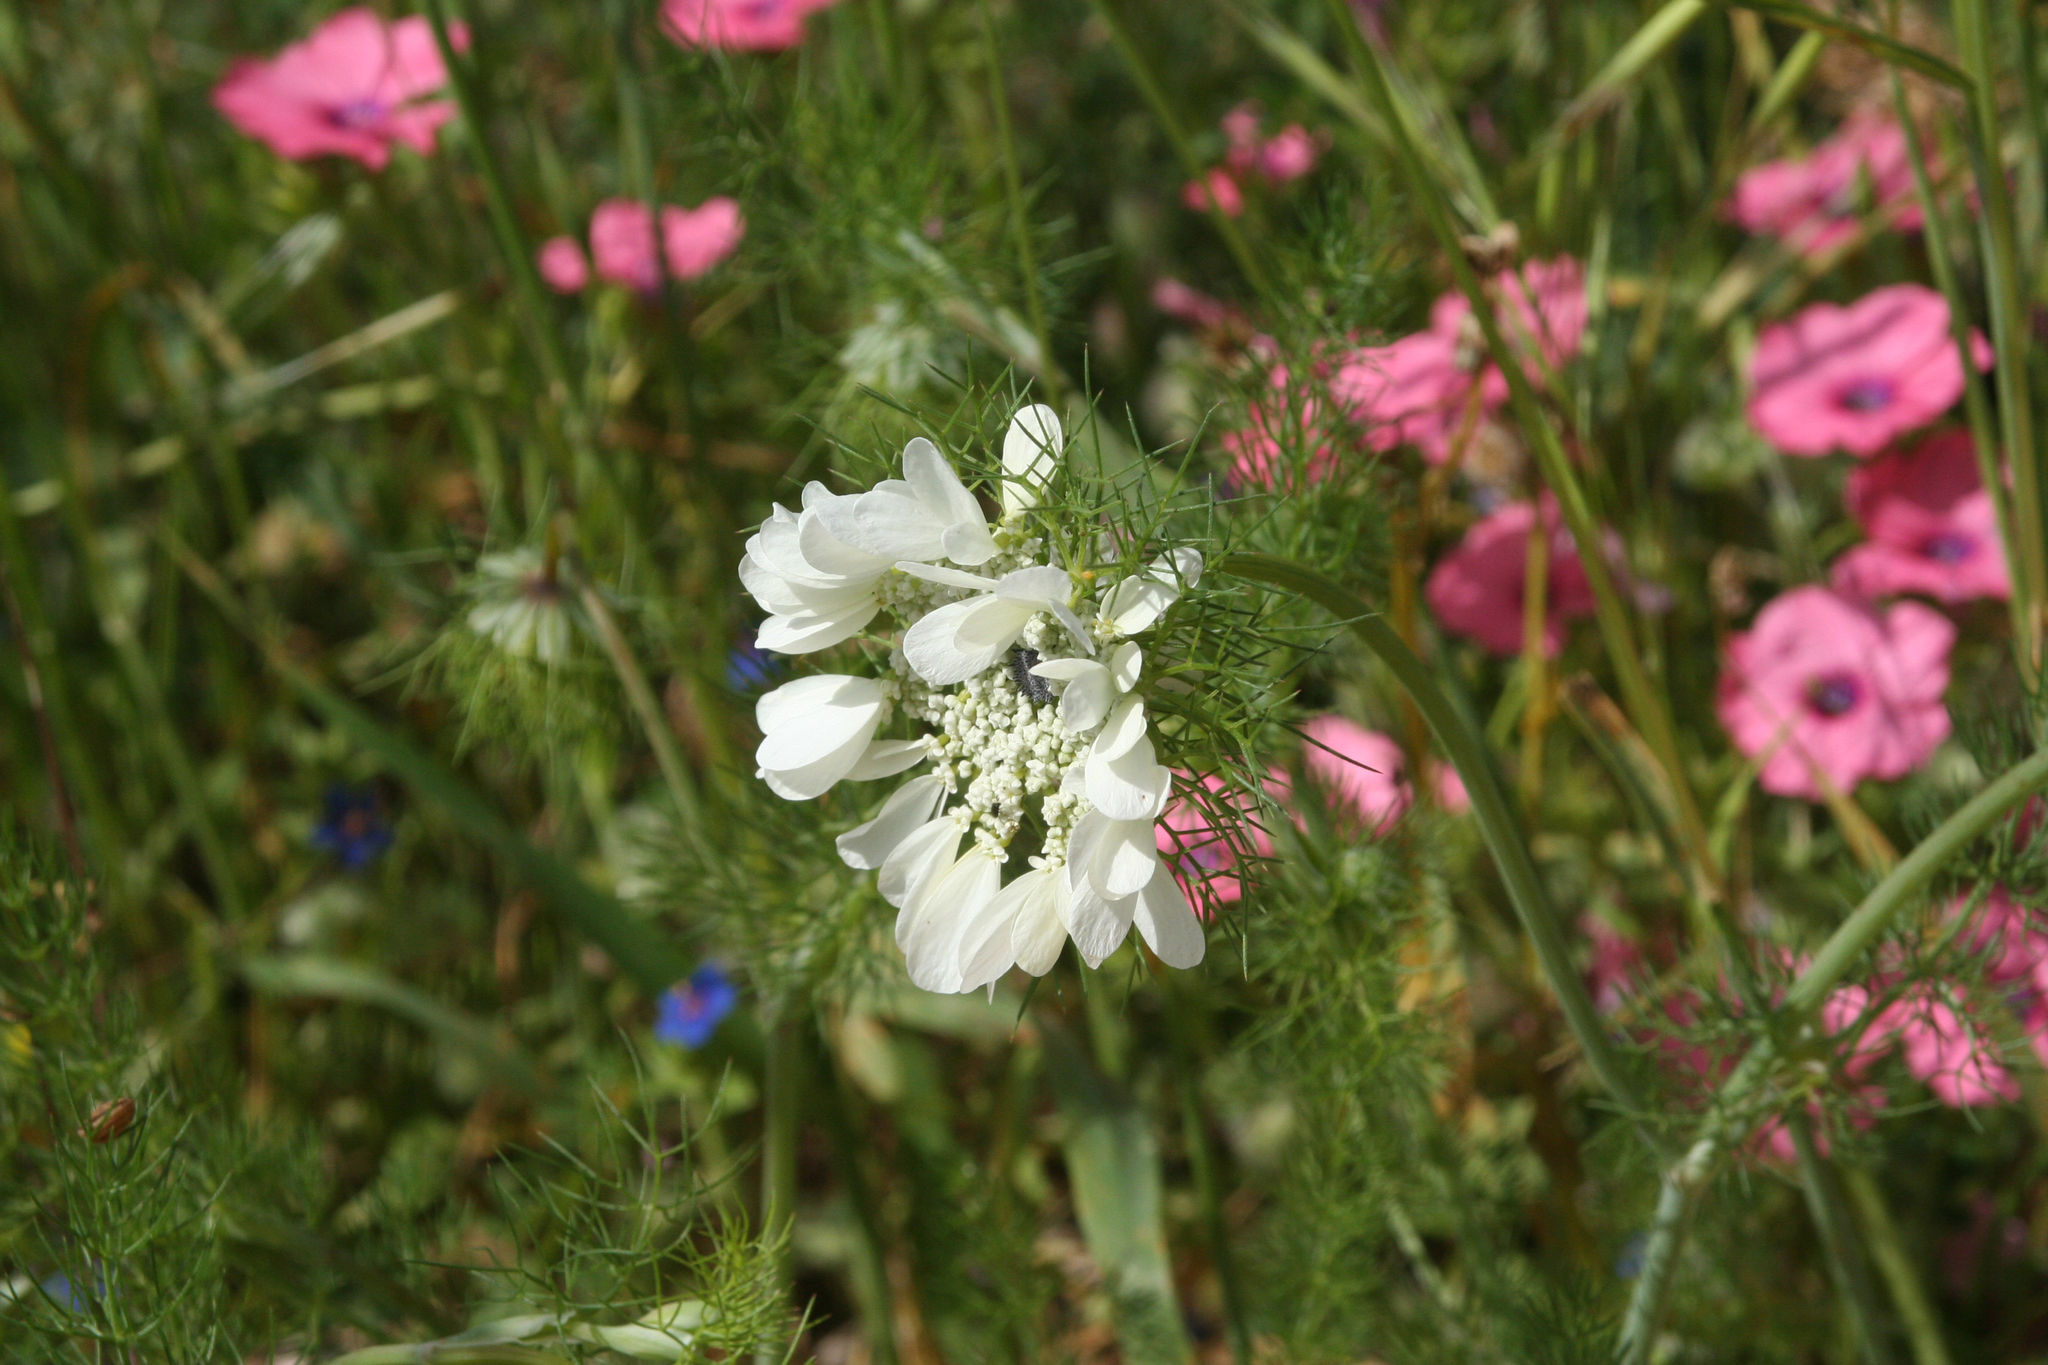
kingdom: Plantae
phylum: Tracheophyta
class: Magnoliopsida
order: Apiales
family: Apiaceae
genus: Artedia
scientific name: Artedia squamata
